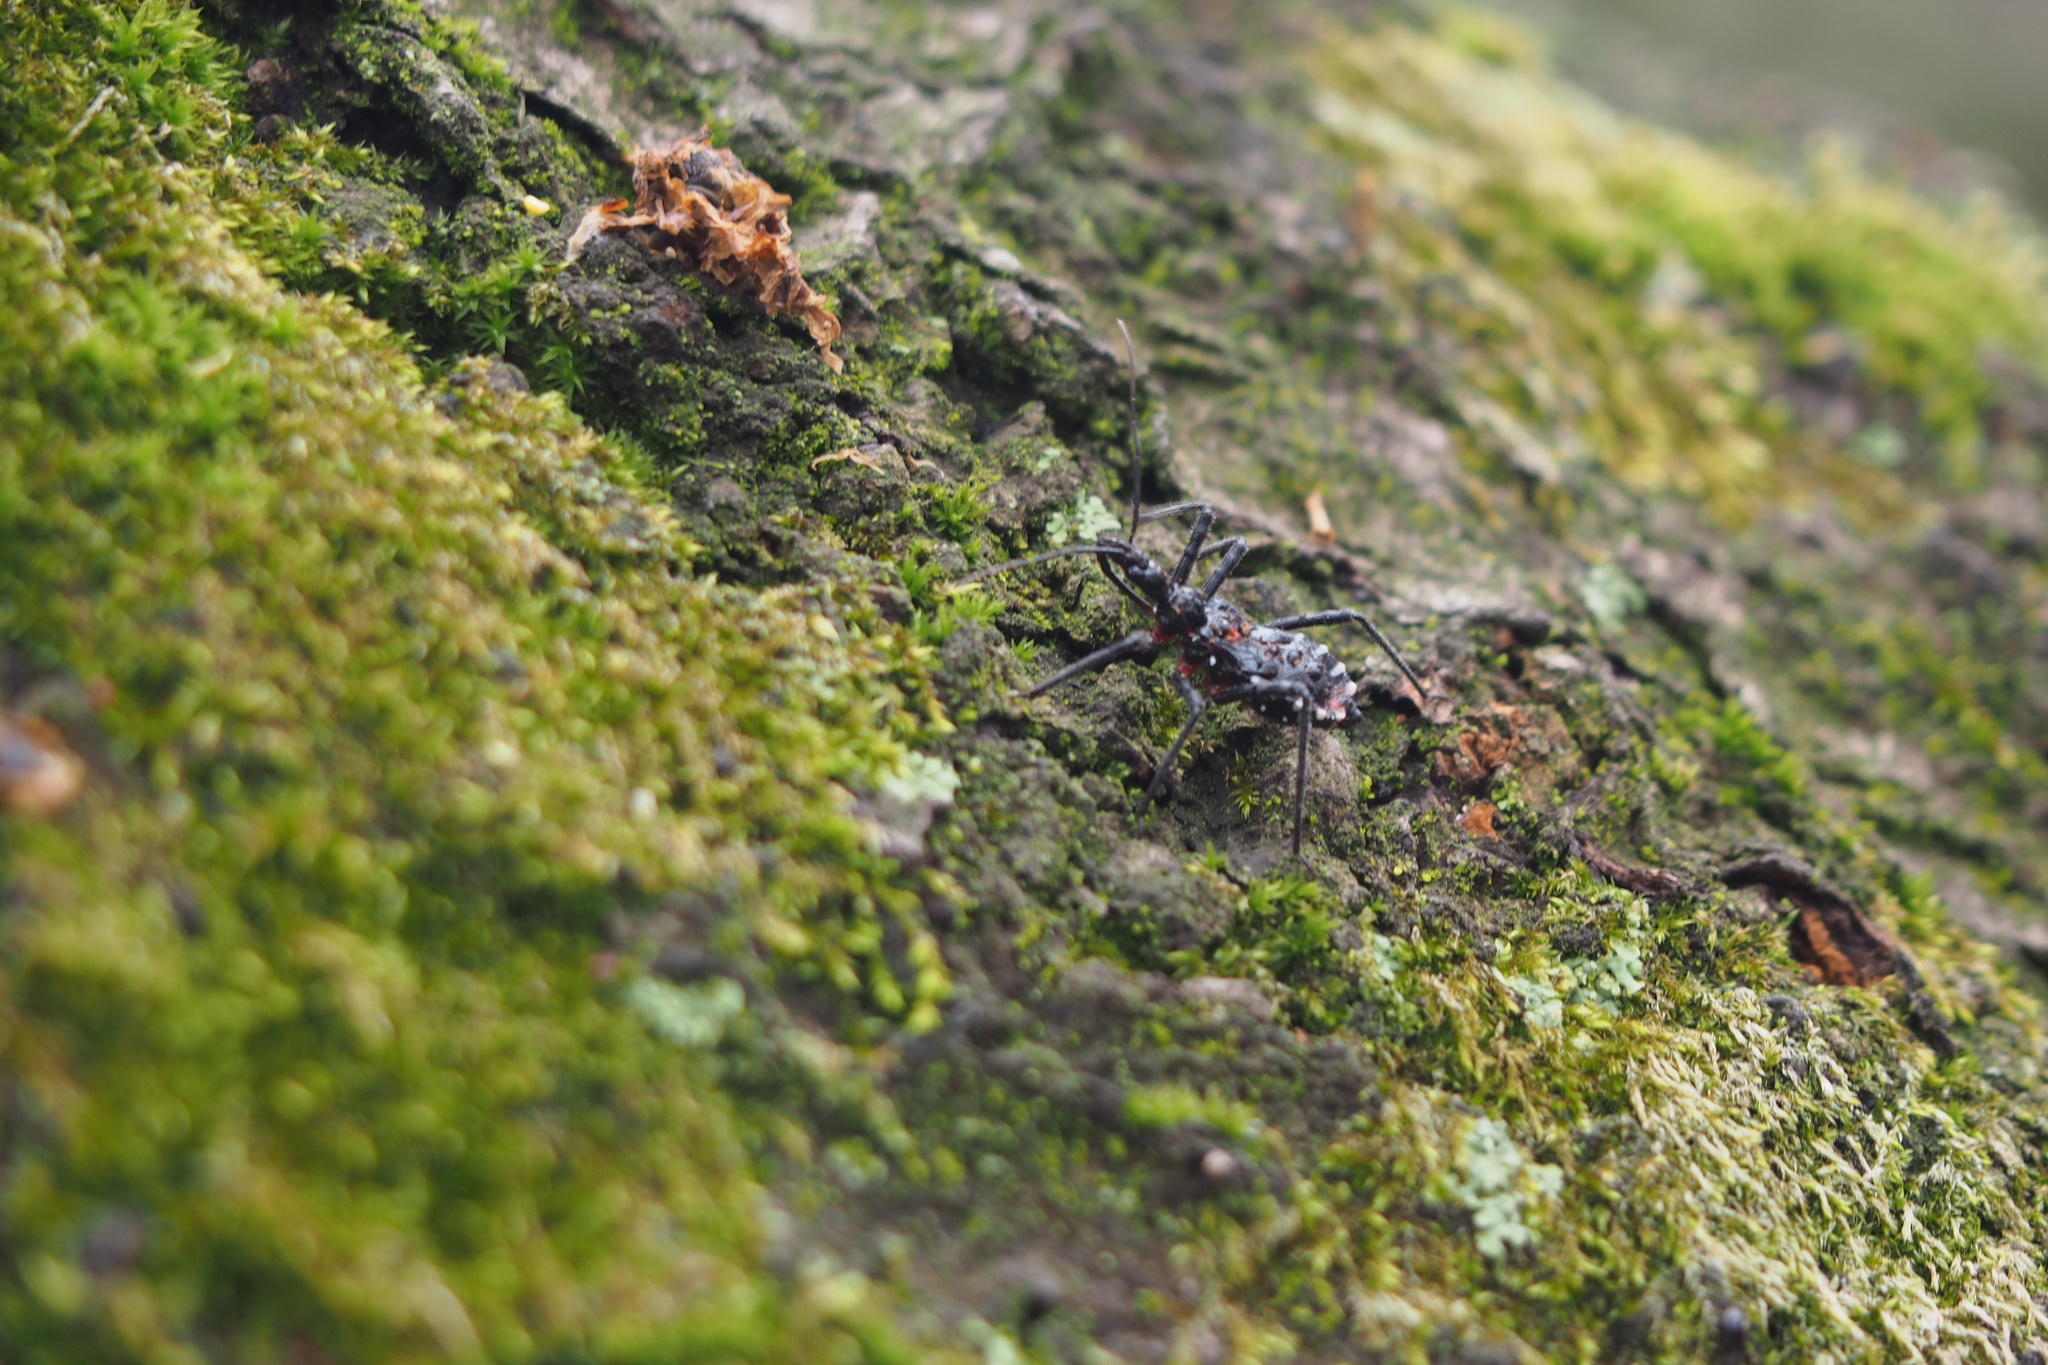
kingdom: Animalia
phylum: Arthropoda
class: Insecta
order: Hemiptera
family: Reduviidae
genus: Agriosphodrus
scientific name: Agriosphodrus dohrni
